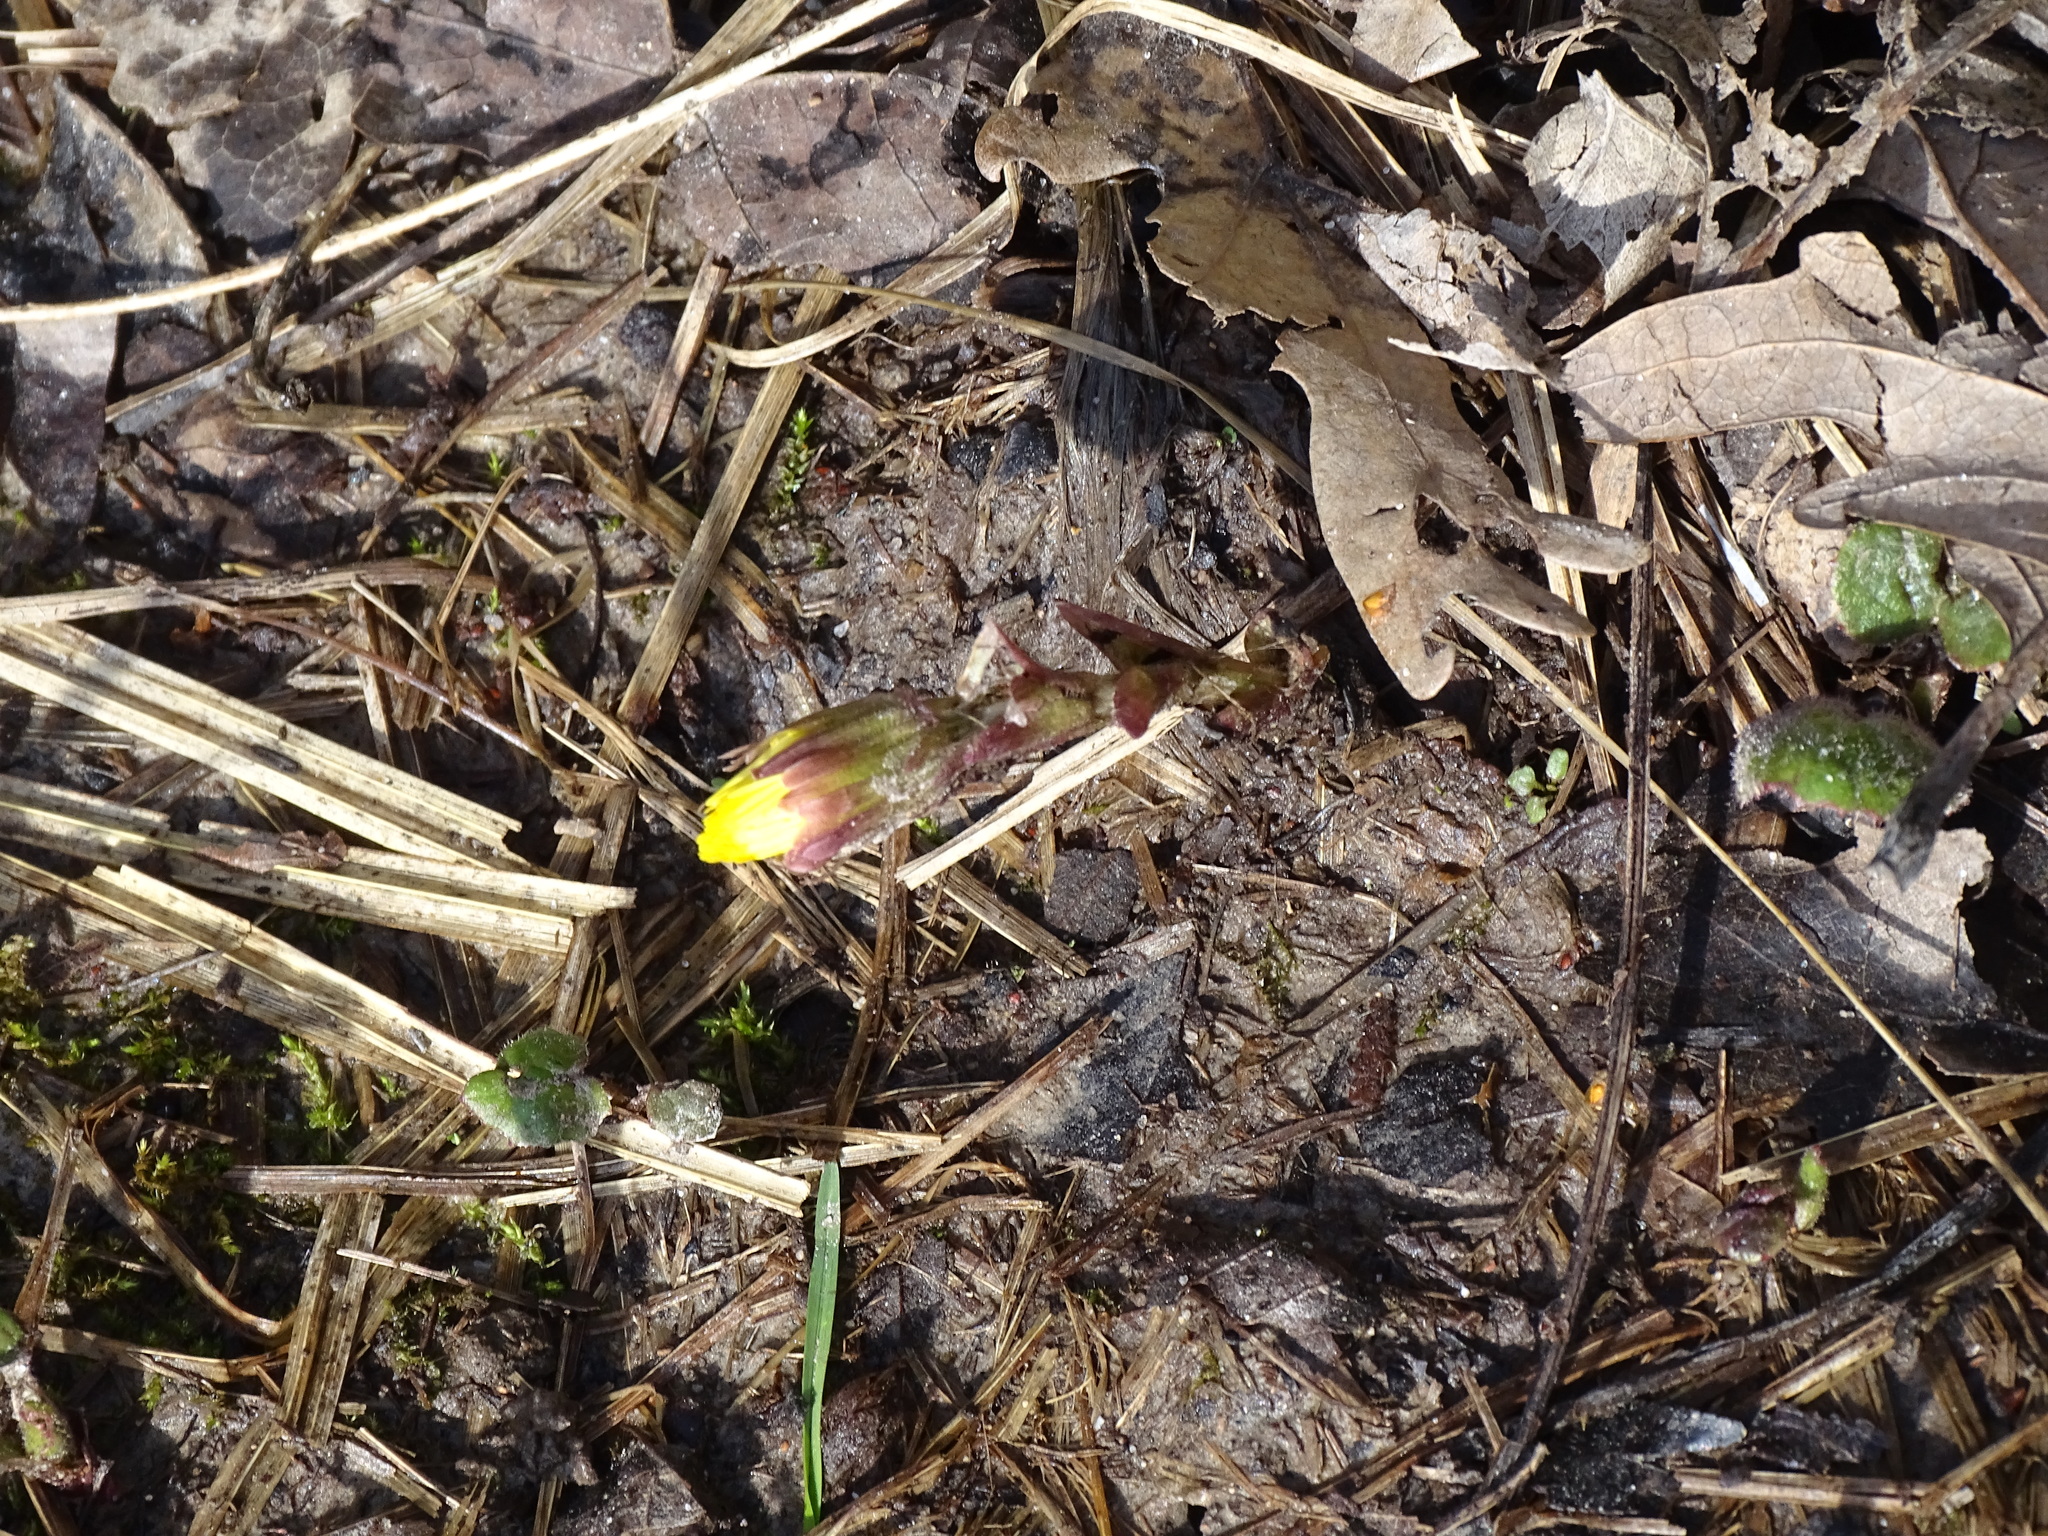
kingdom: Plantae
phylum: Tracheophyta
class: Magnoliopsida
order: Asterales
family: Asteraceae
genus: Tussilago
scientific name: Tussilago farfara
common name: Coltsfoot
